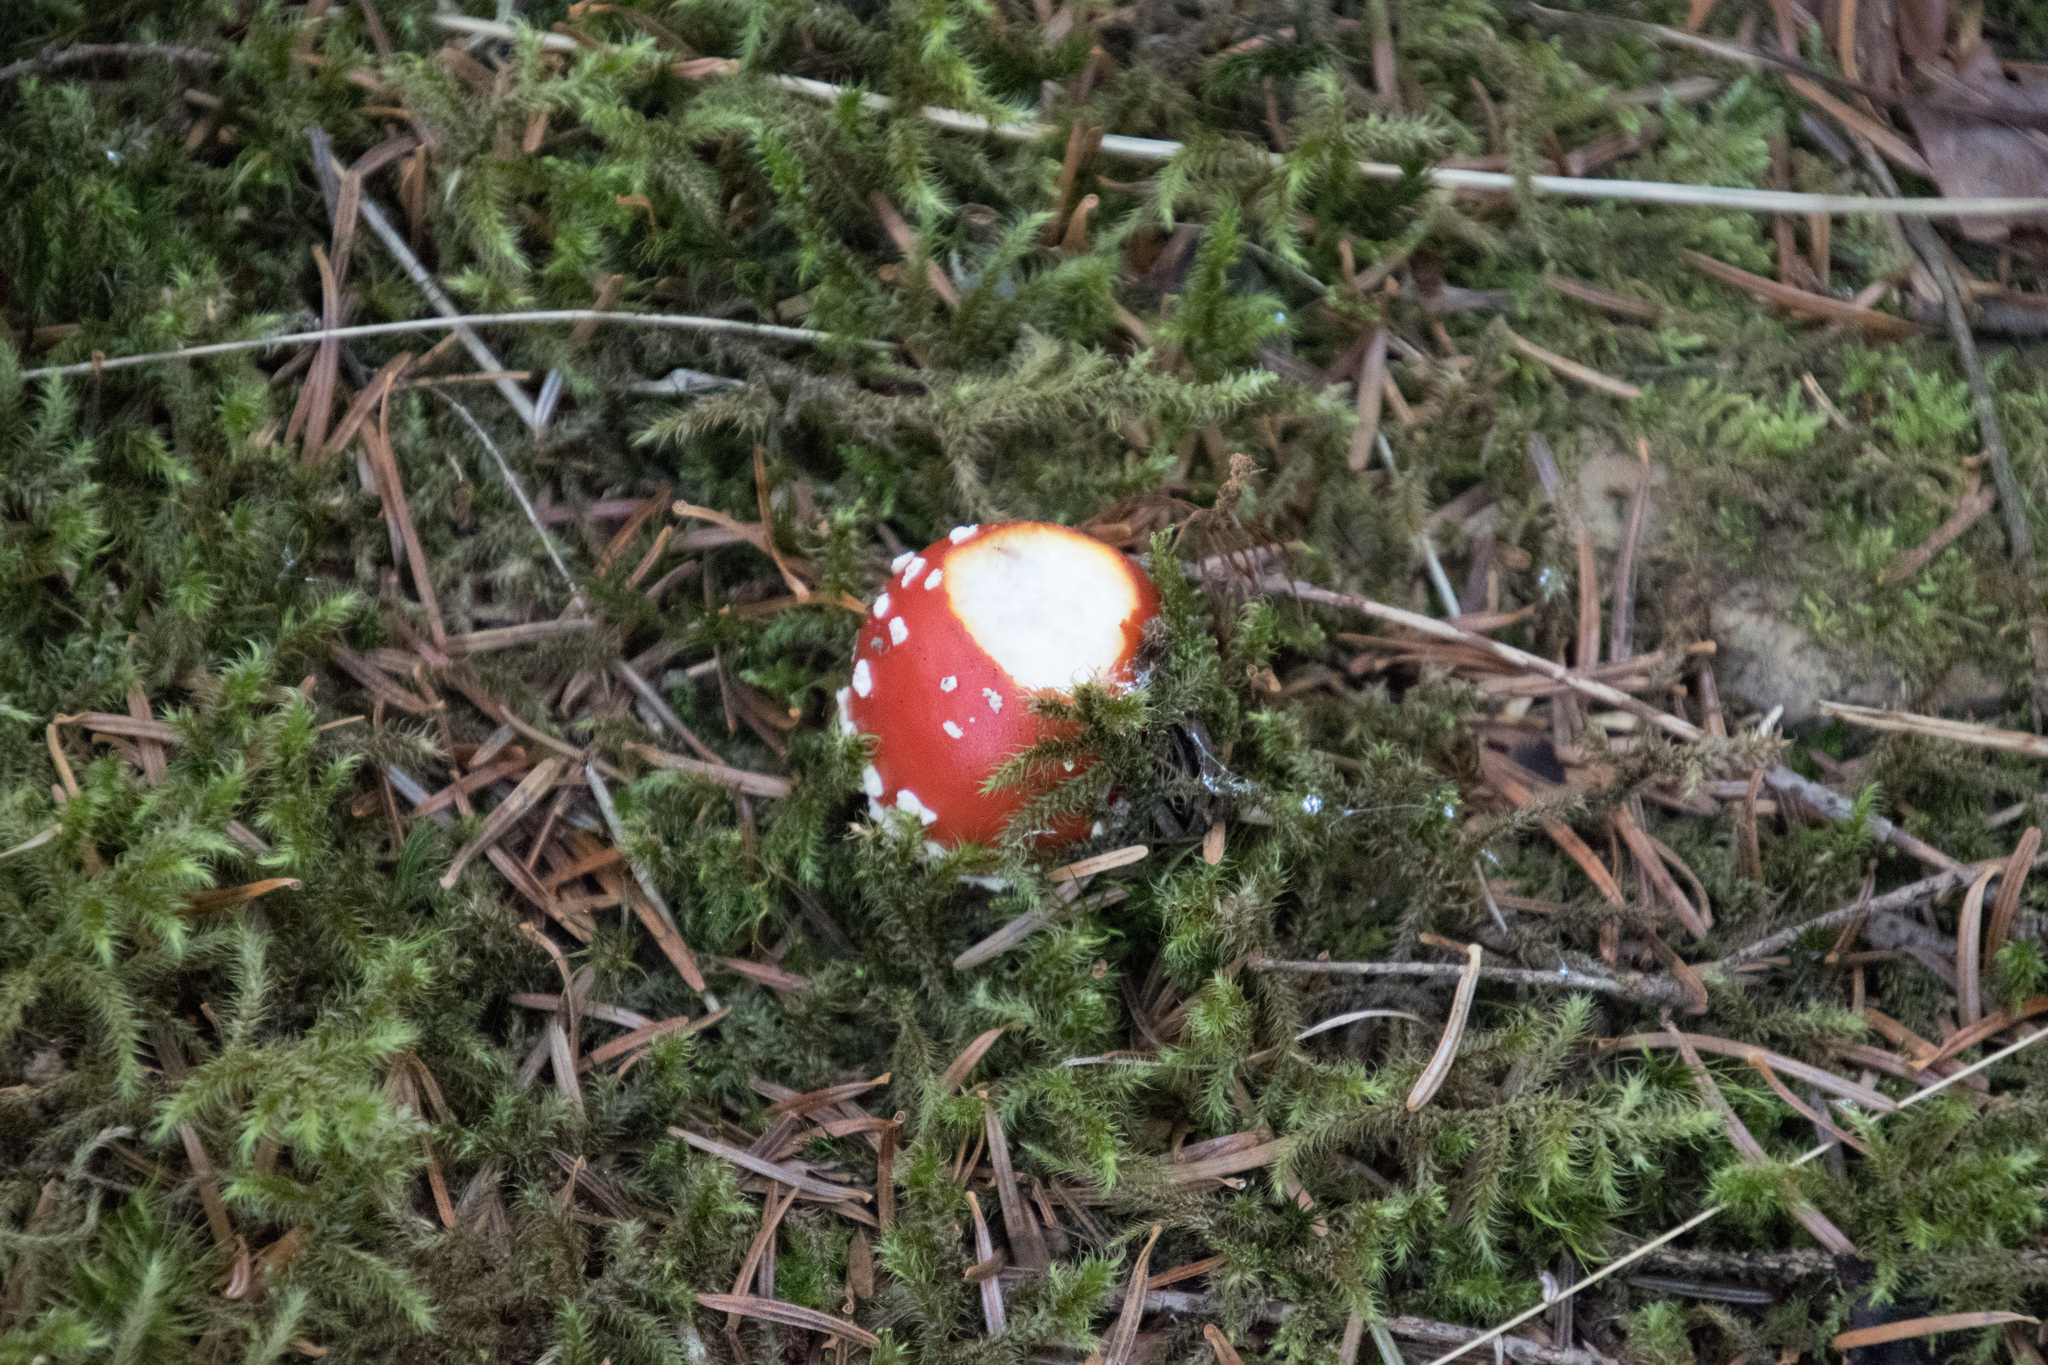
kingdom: Fungi
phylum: Basidiomycota
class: Agaricomycetes
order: Agaricales
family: Amanitaceae
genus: Amanita
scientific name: Amanita muscaria
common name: Fly agaric
